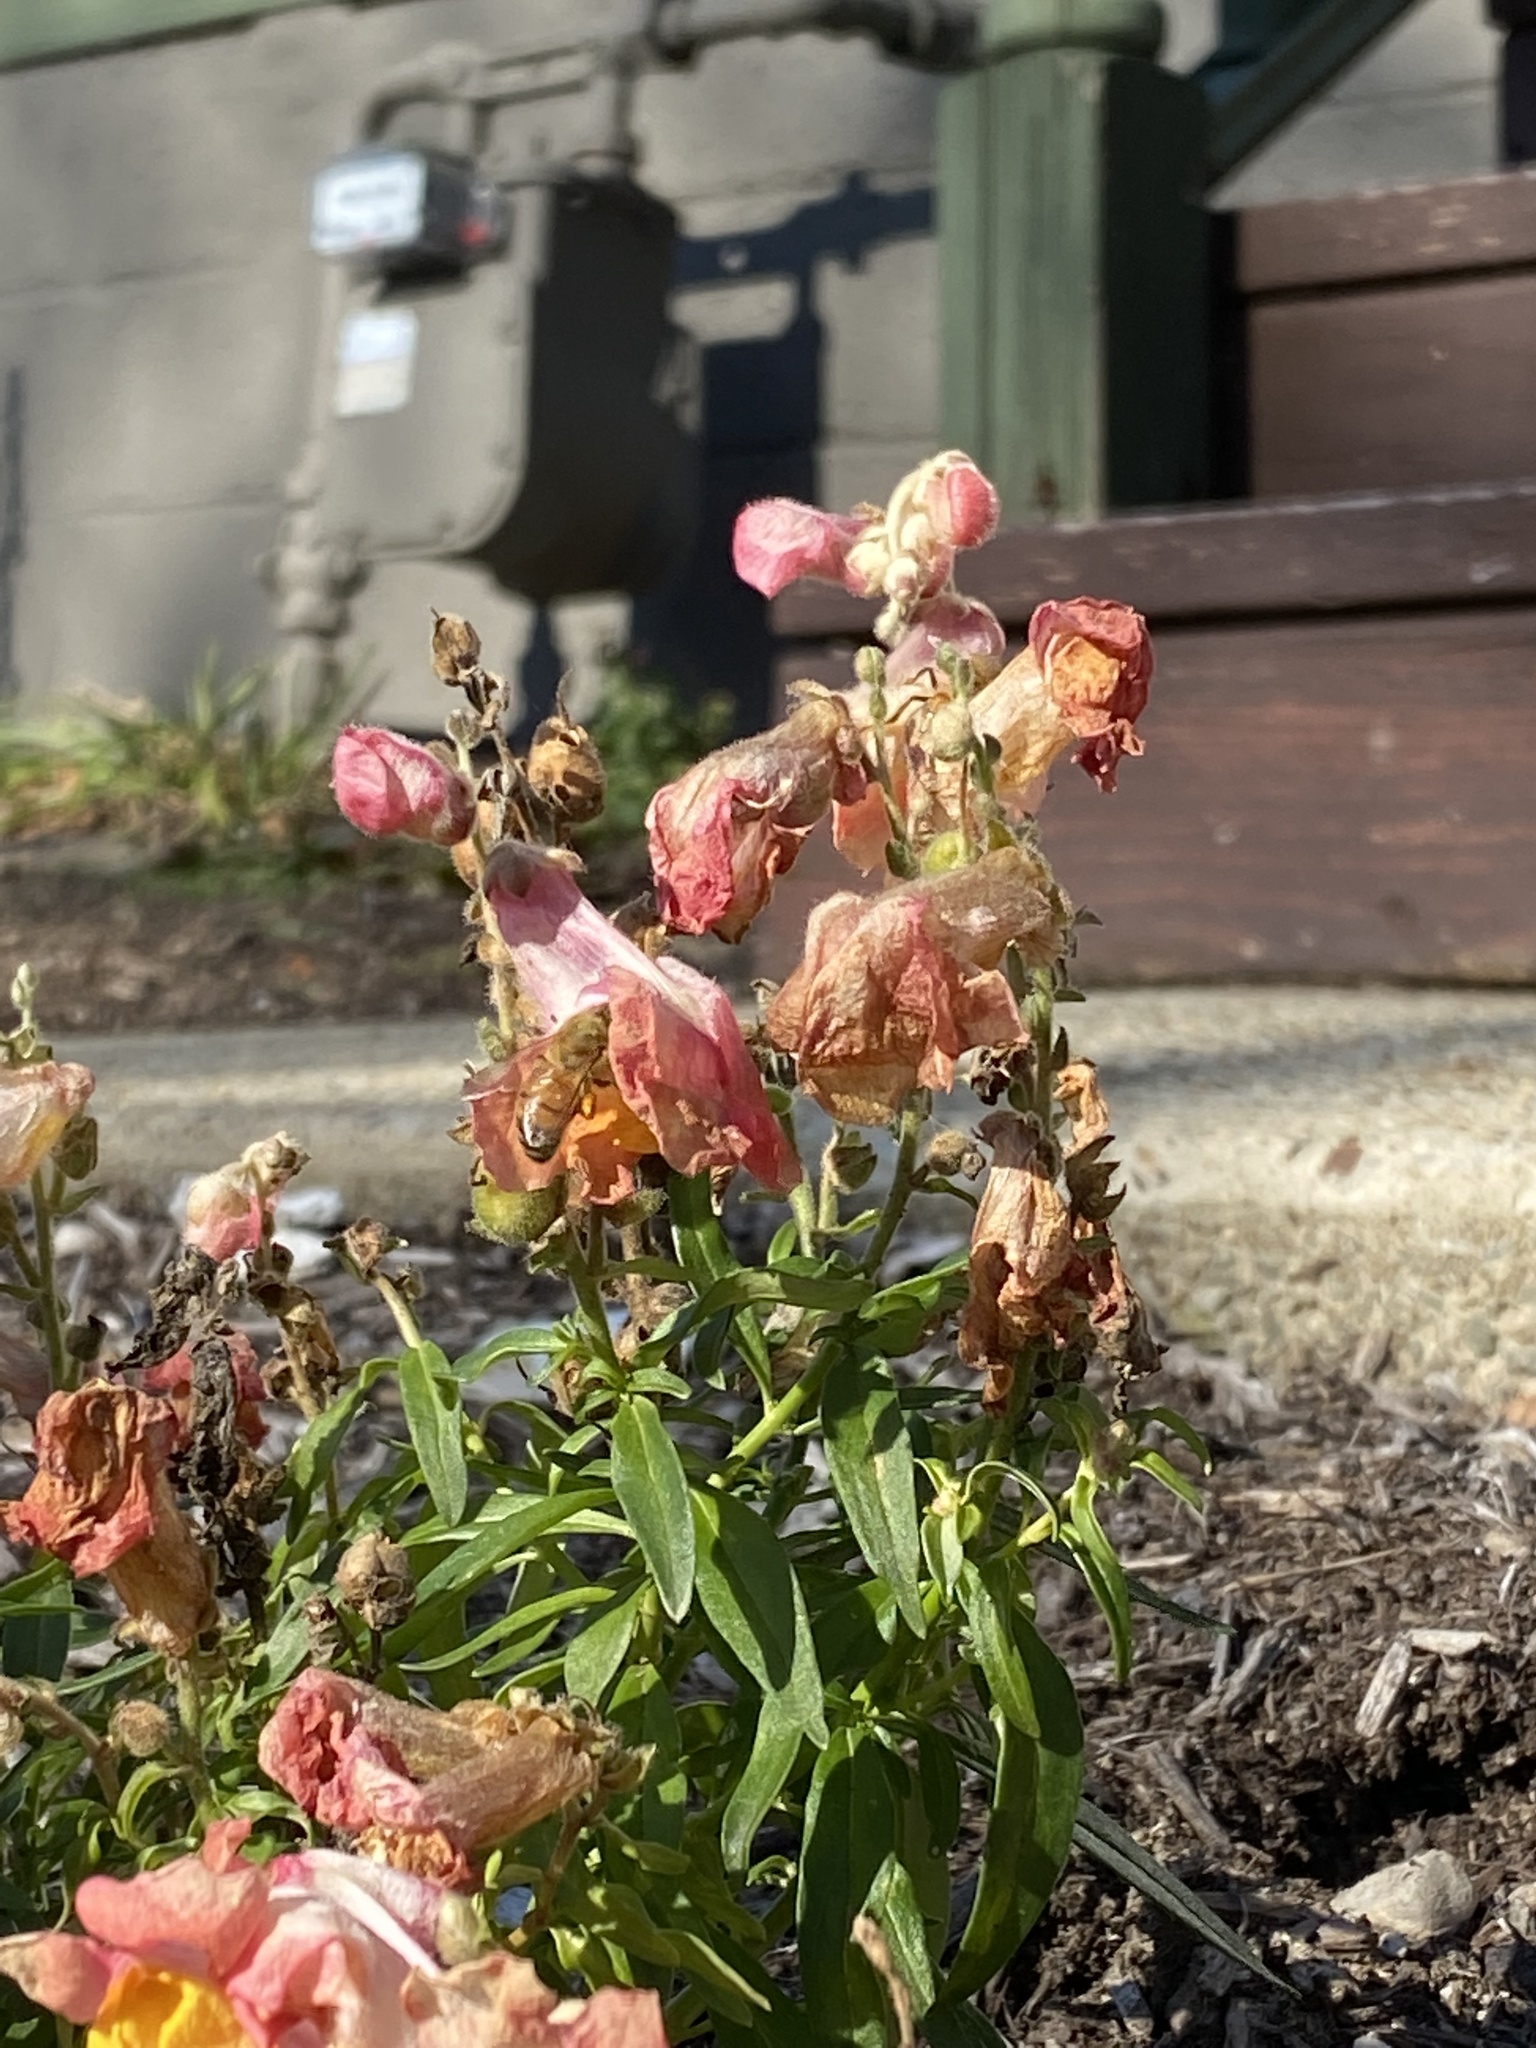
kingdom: Animalia
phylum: Arthropoda
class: Insecta
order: Hymenoptera
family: Apidae
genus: Apis
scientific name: Apis mellifera
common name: Honey bee
